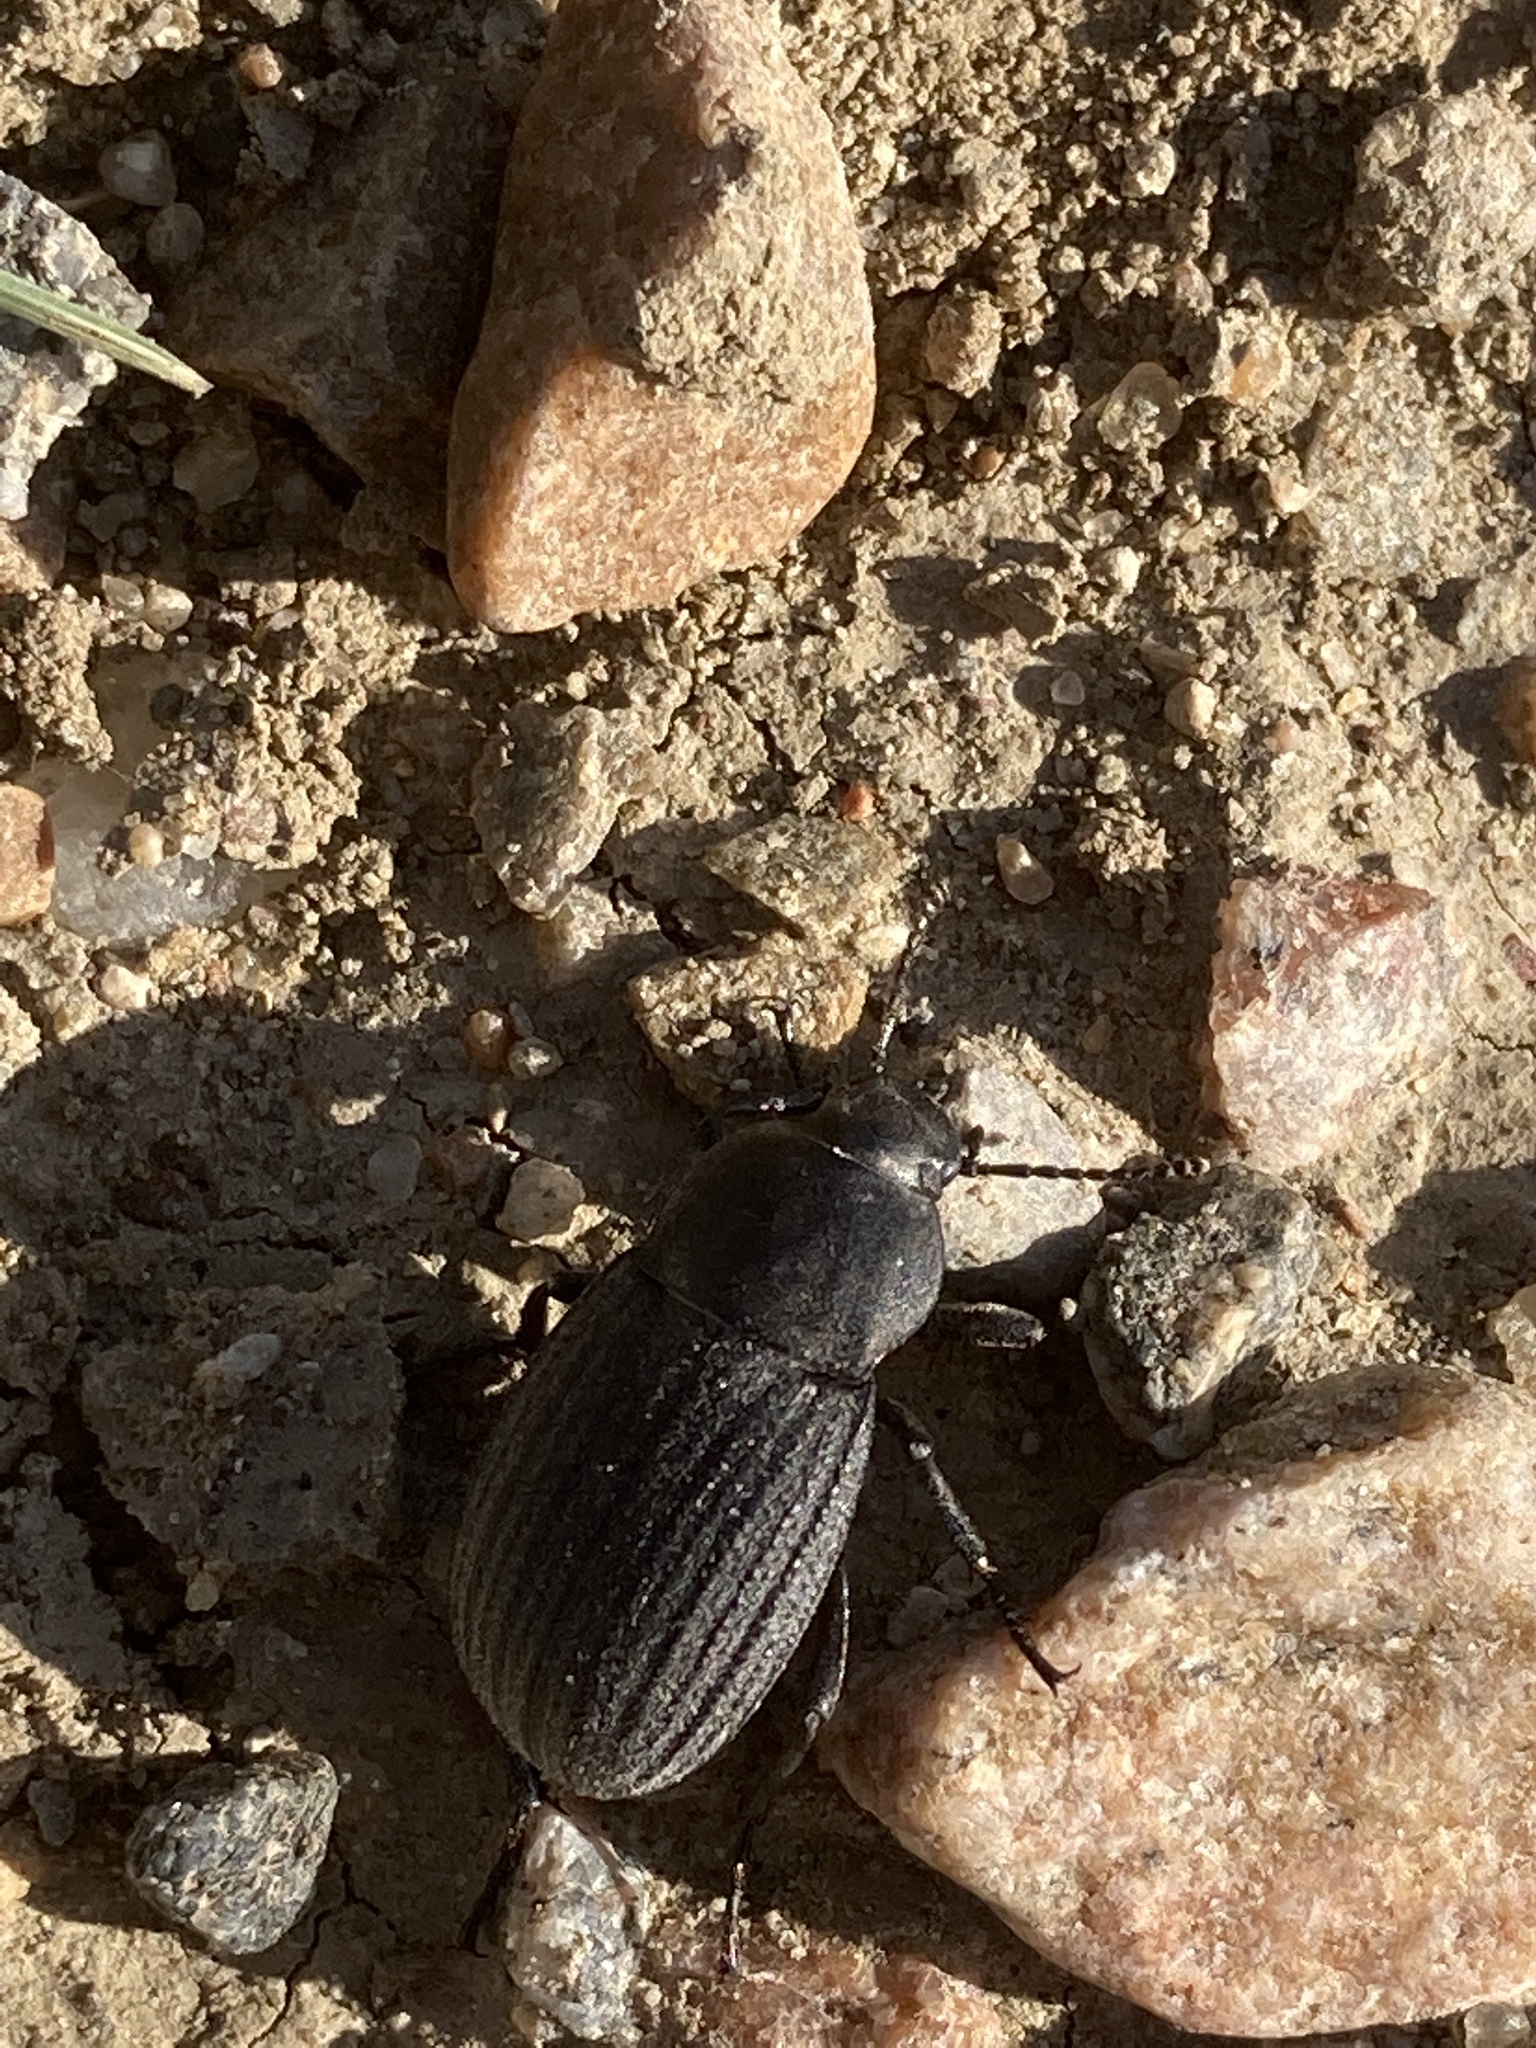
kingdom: Animalia
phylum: Arthropoda
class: Insecta
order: Coleoptera
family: Tenebrionidae
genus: Eleodes
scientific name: Eleodes tricostata
